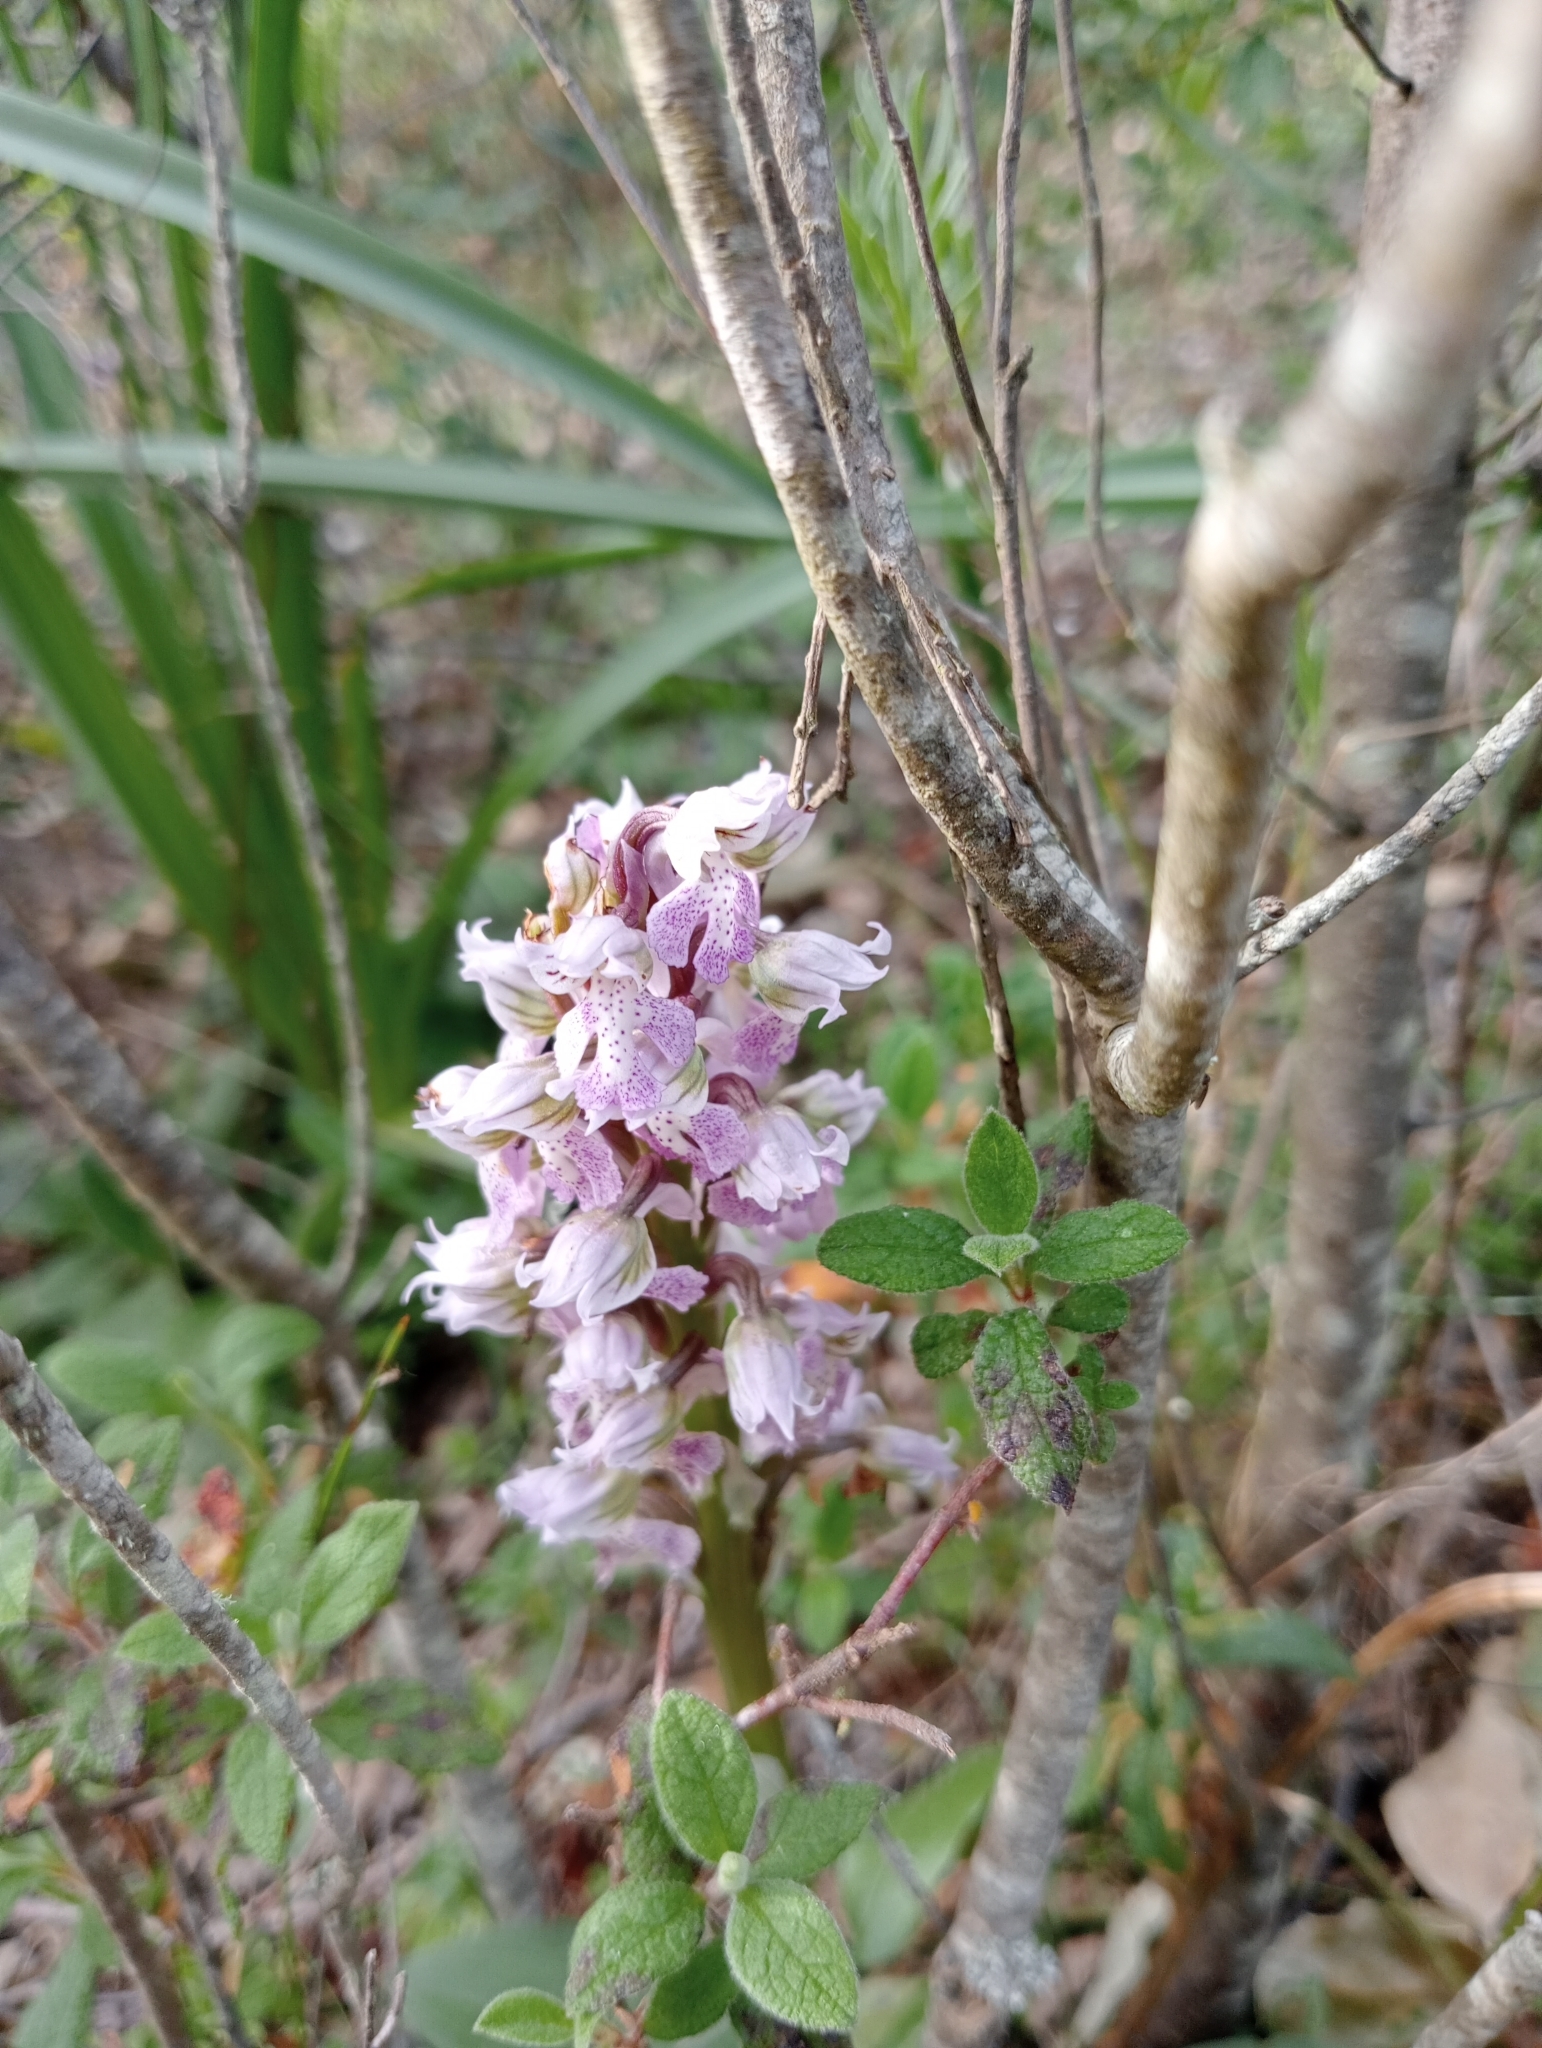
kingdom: Plantae
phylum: Tracheophyta
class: Liliopsida
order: Asparagales
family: Orchidaceae
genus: Neotinea
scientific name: Neotinea lactea
